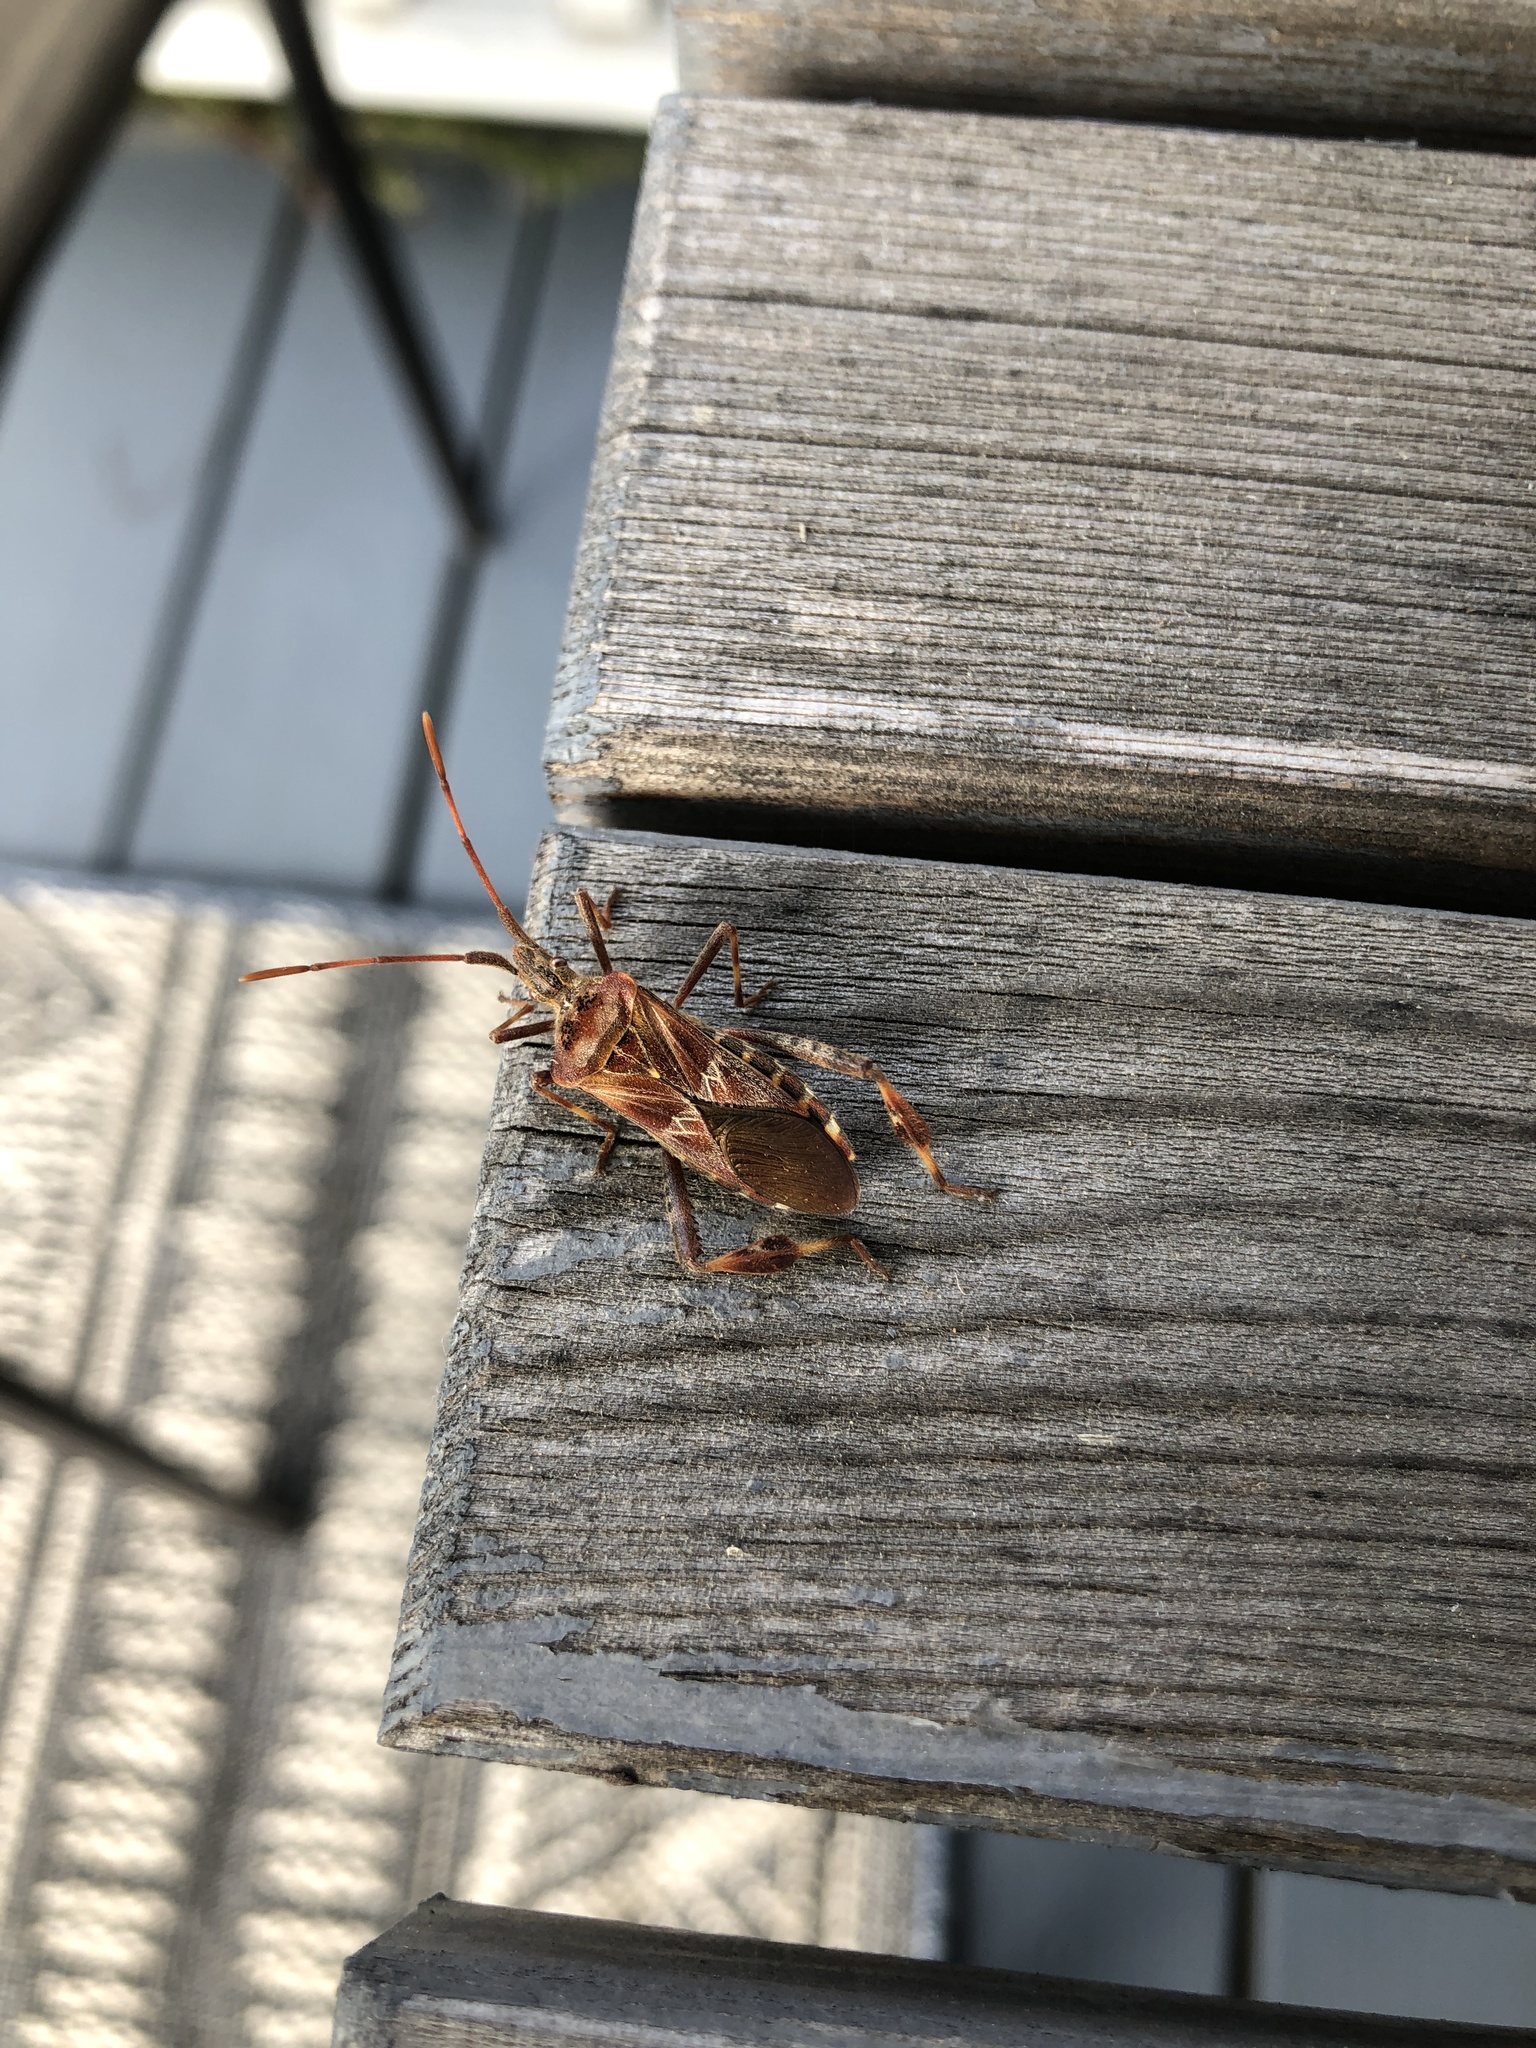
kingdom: Animalia
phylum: Arthropoda
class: Insecta
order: Hemiptera
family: Coreidae
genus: Leptoglossus
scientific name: Leptoglossus occidentalis
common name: Western conifer-seed bug
